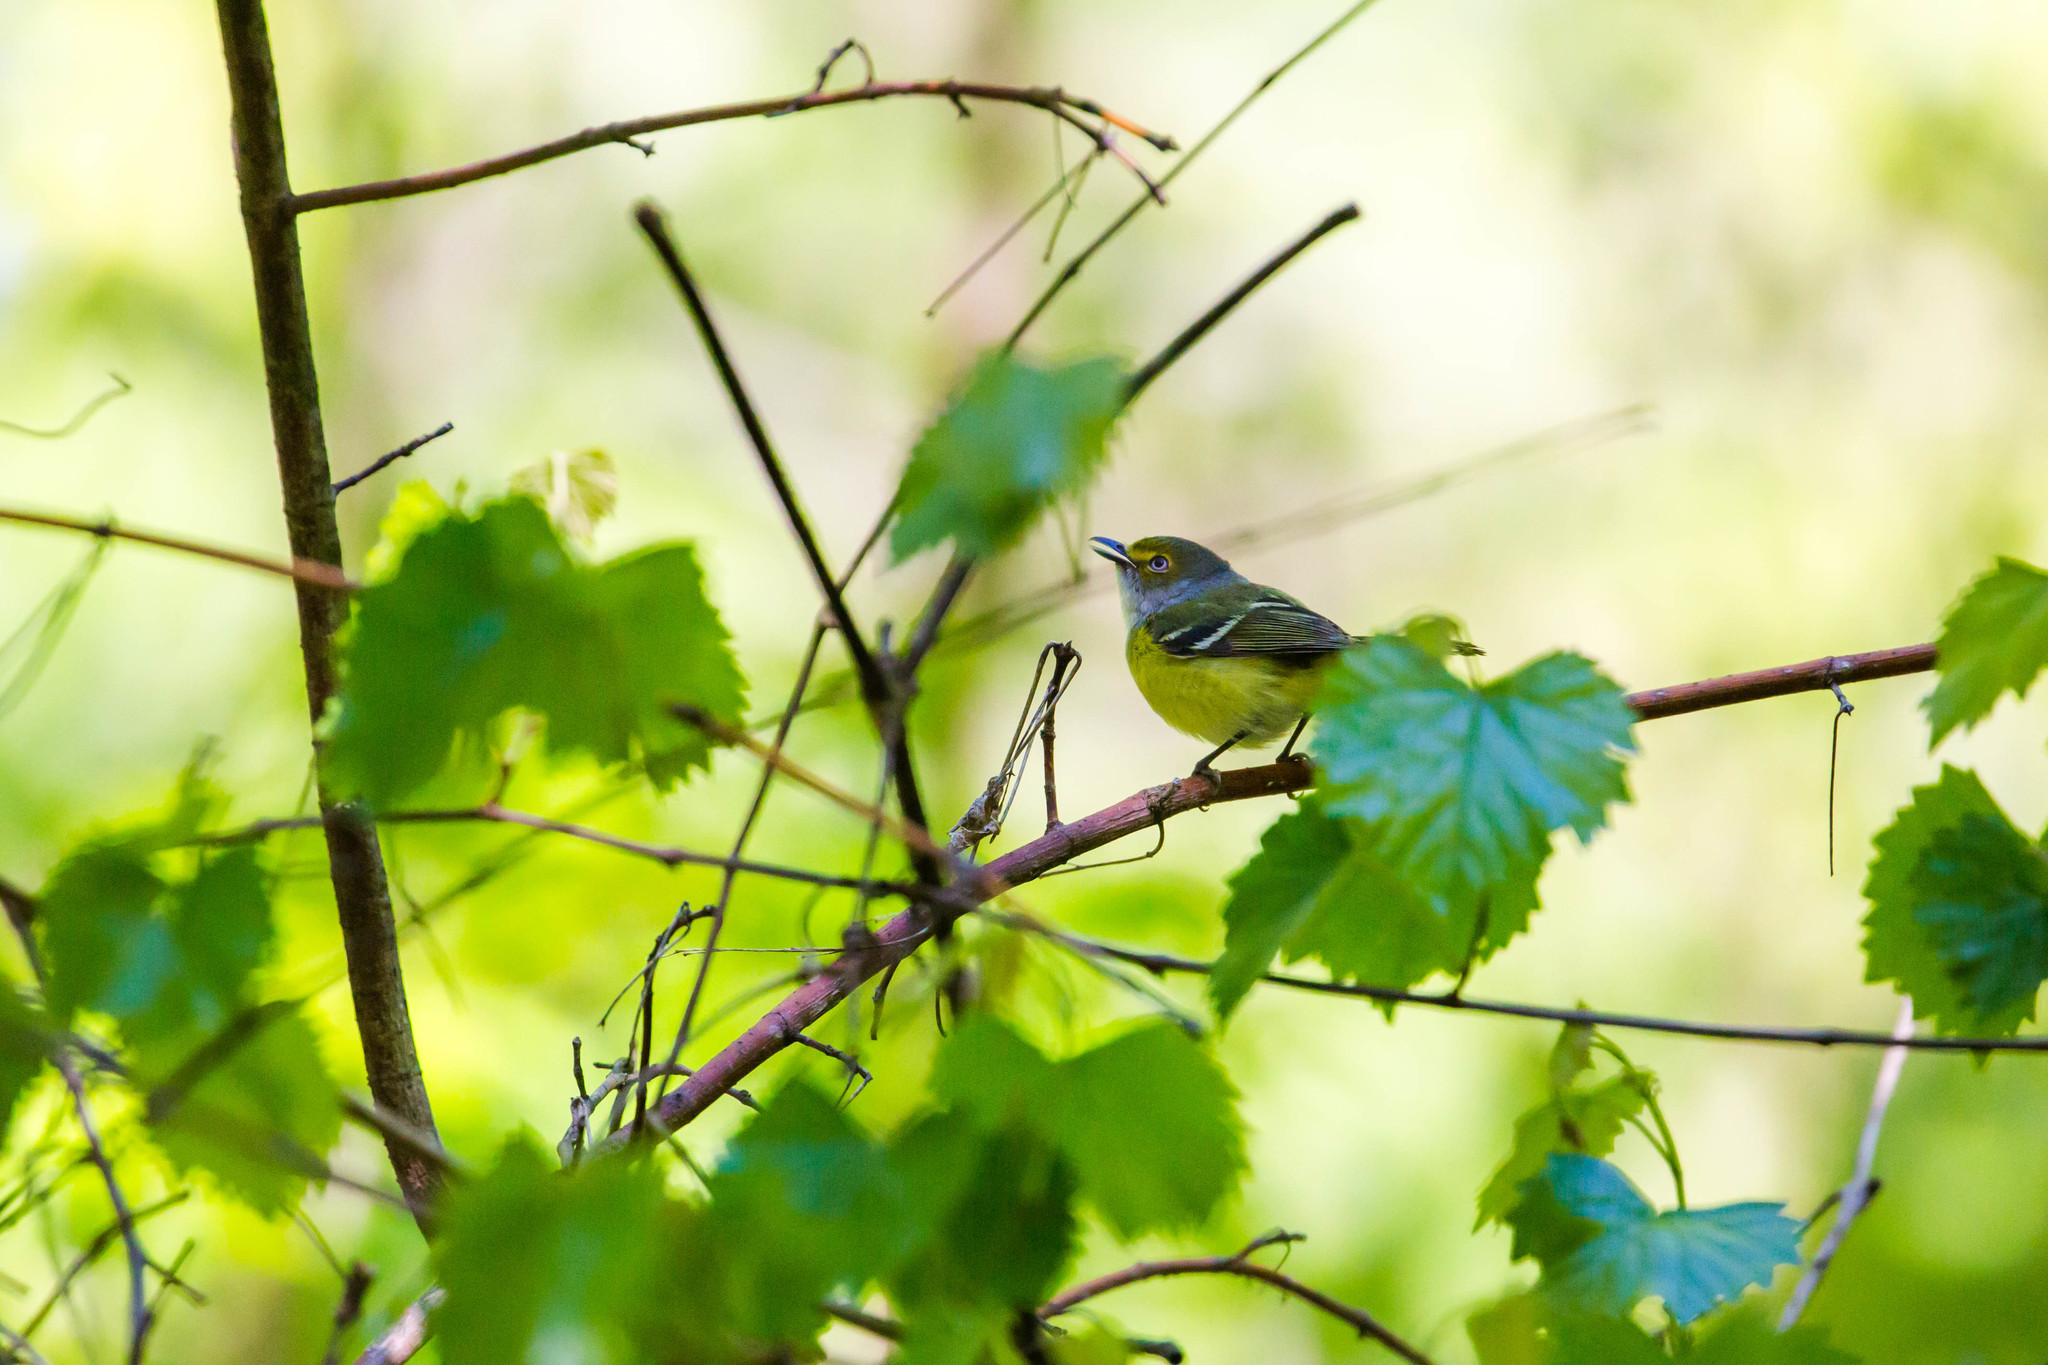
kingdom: Animalia
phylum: Chordata
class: Aves
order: Passeriformes
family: Vireonidae
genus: Vireo
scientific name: Vireo griseus
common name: White-eyed vireo
